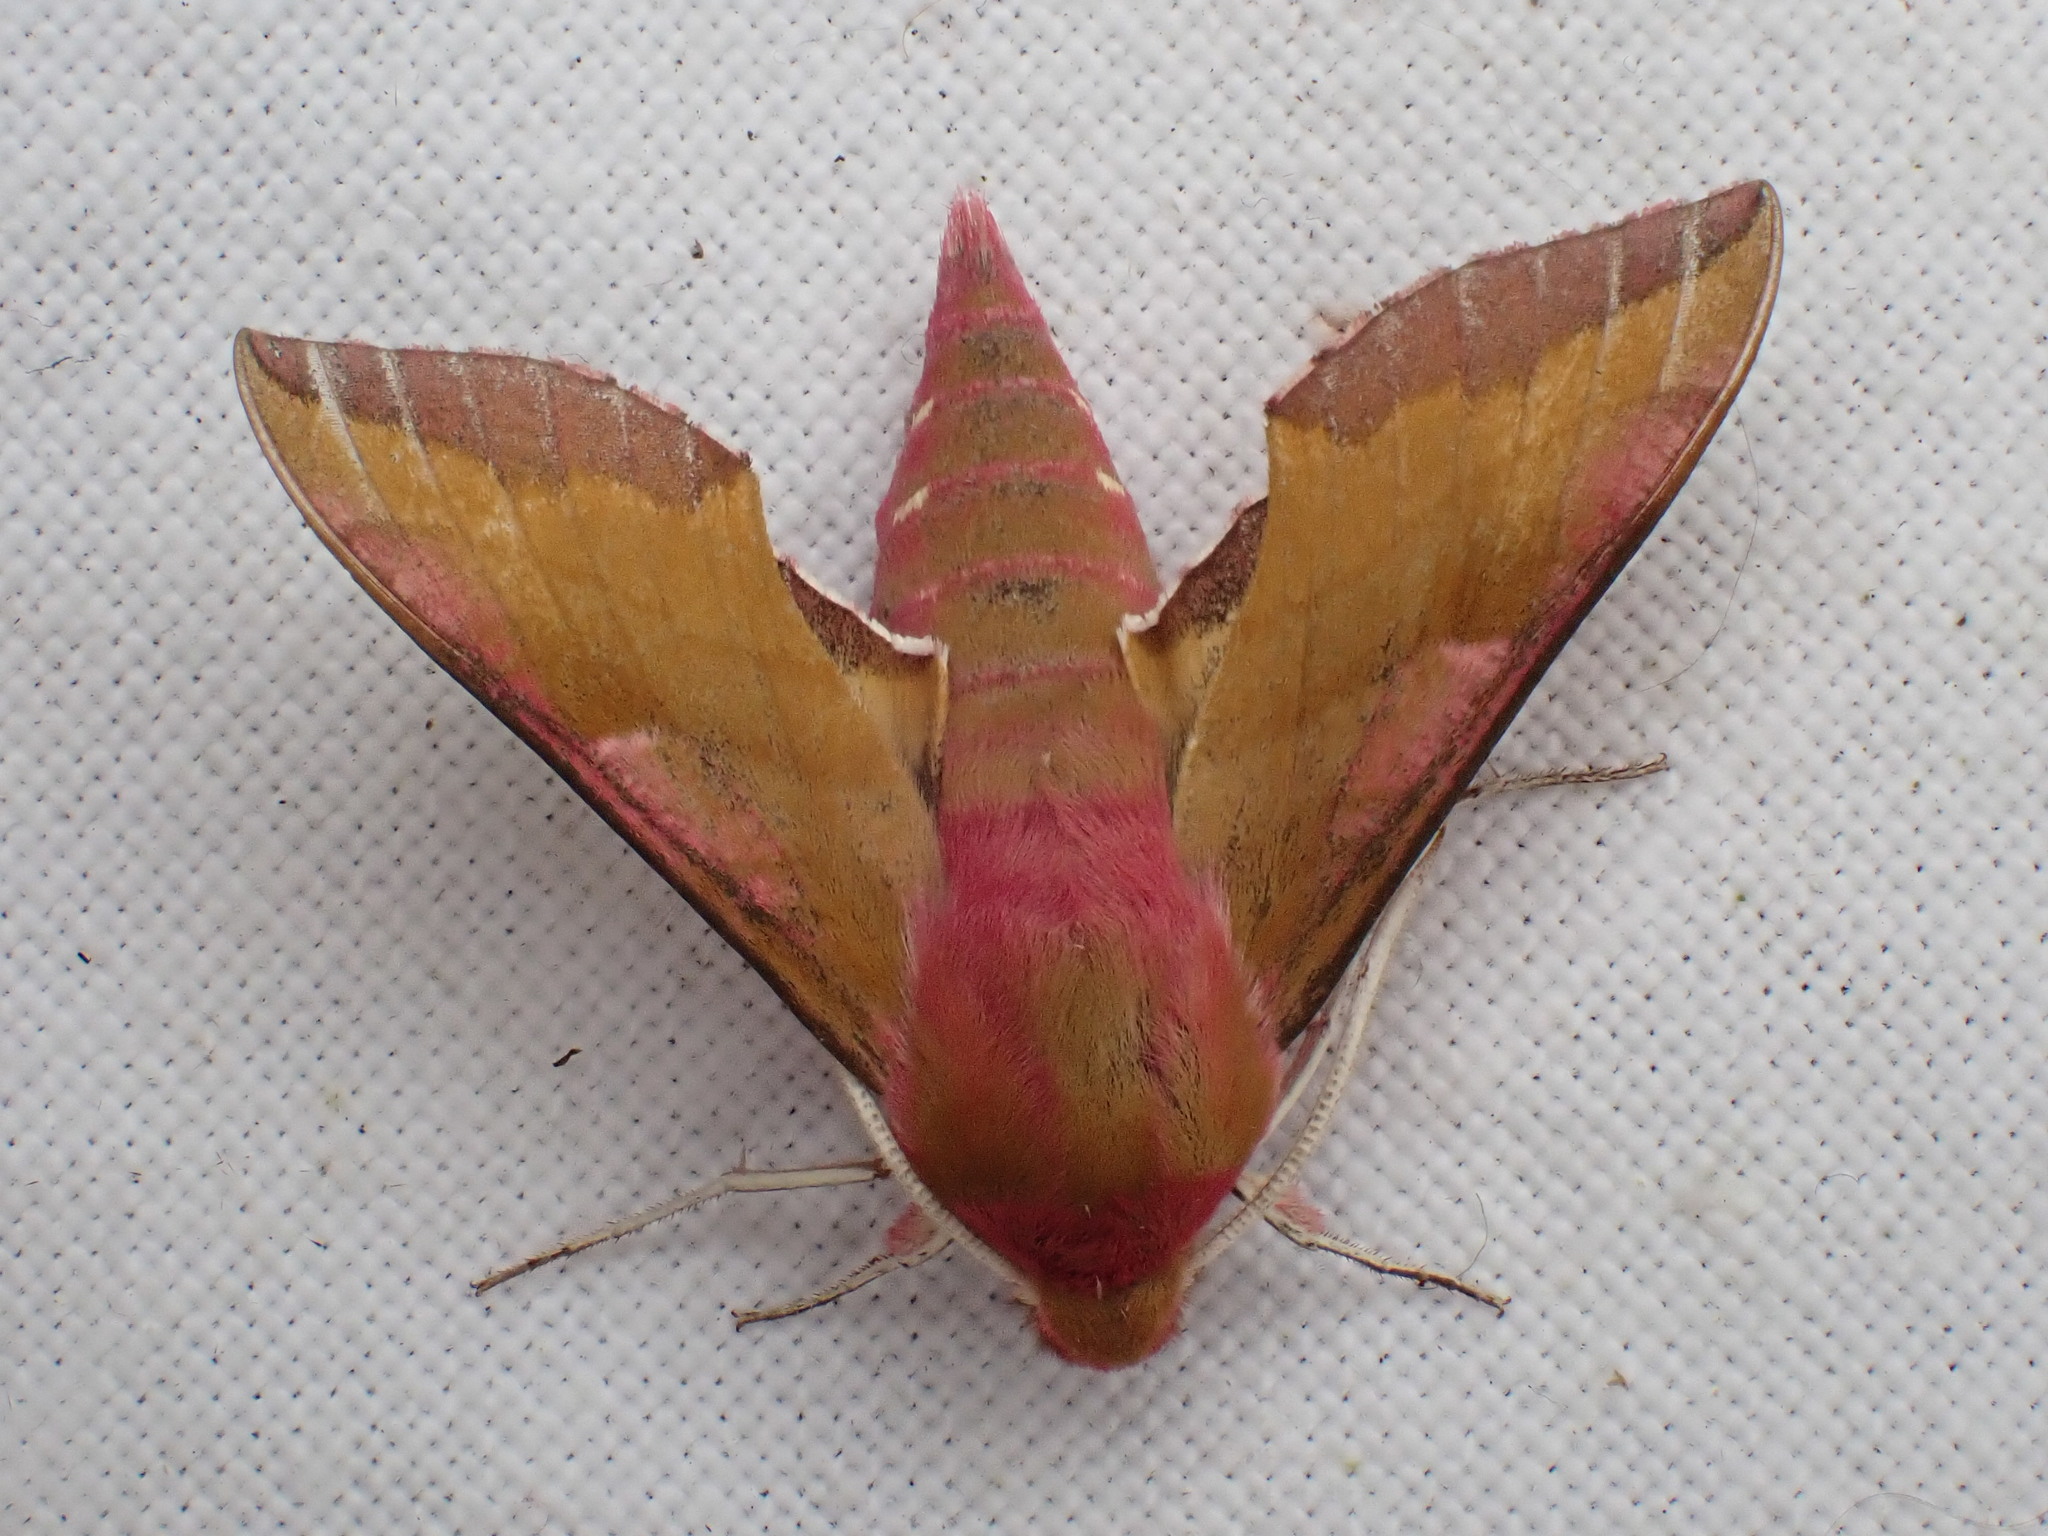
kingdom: Animalia
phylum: Arthropoda
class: Insecta
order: Lepidoptera
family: Sphingidae
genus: Deilephila
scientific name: Deilephila porcellus
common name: Small elephant hawk-moth
